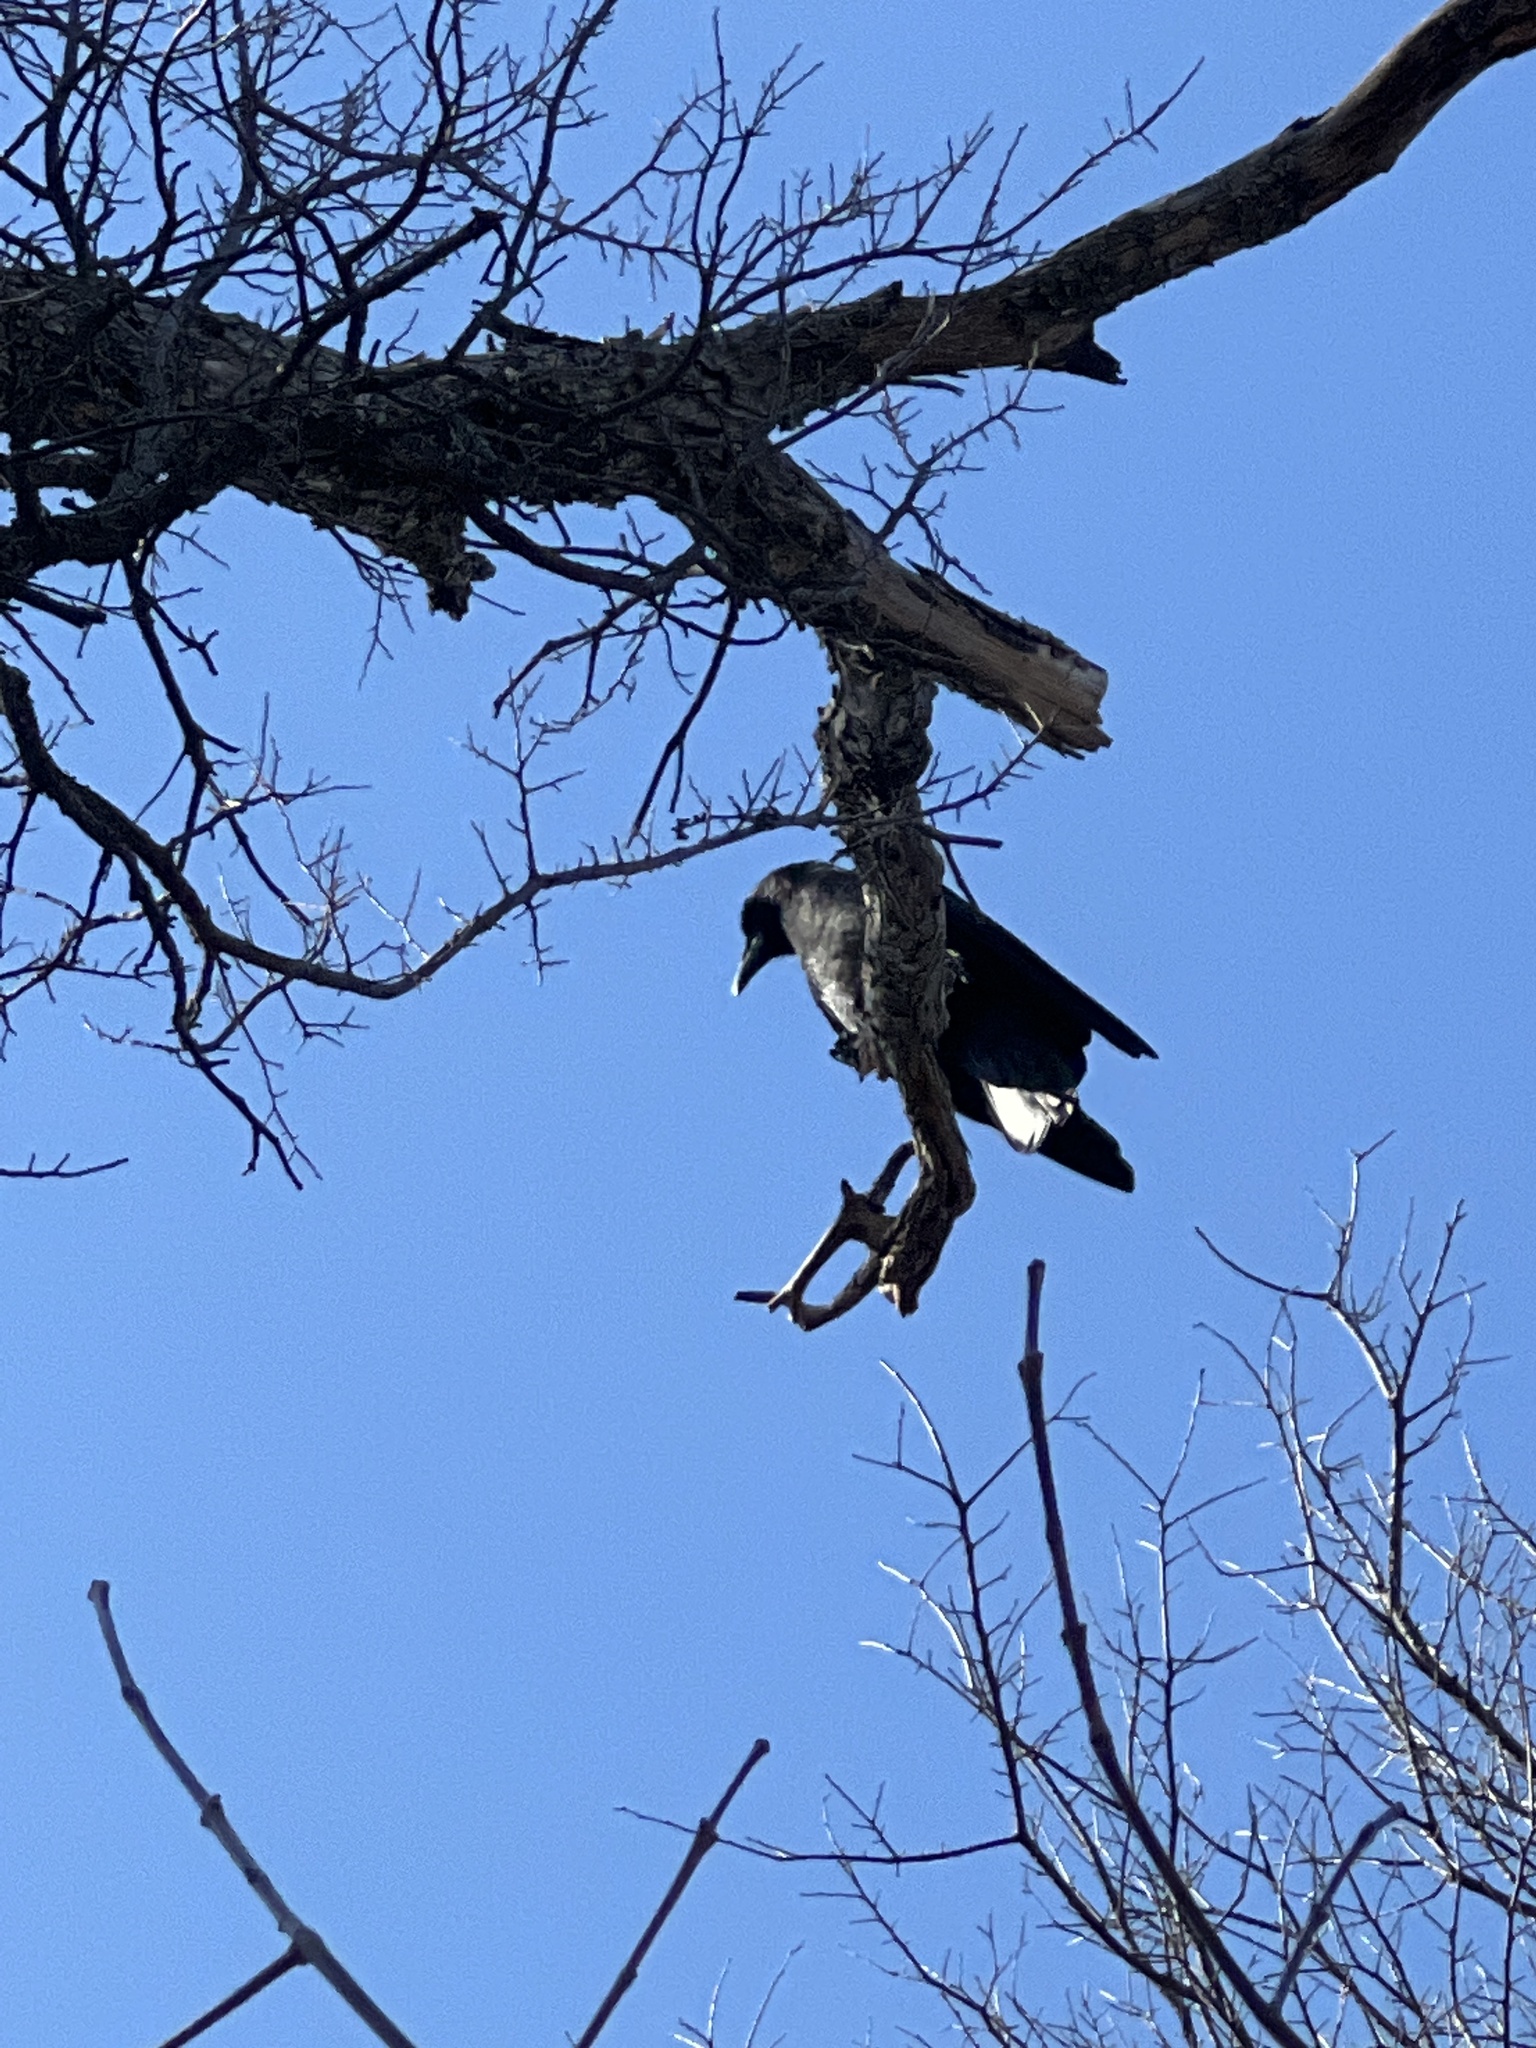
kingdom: Animalia
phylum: Chordata
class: Aves
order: Passeriformes
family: Corvidae
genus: Corvus
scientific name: Corvus brachyrhynchos
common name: American crow
